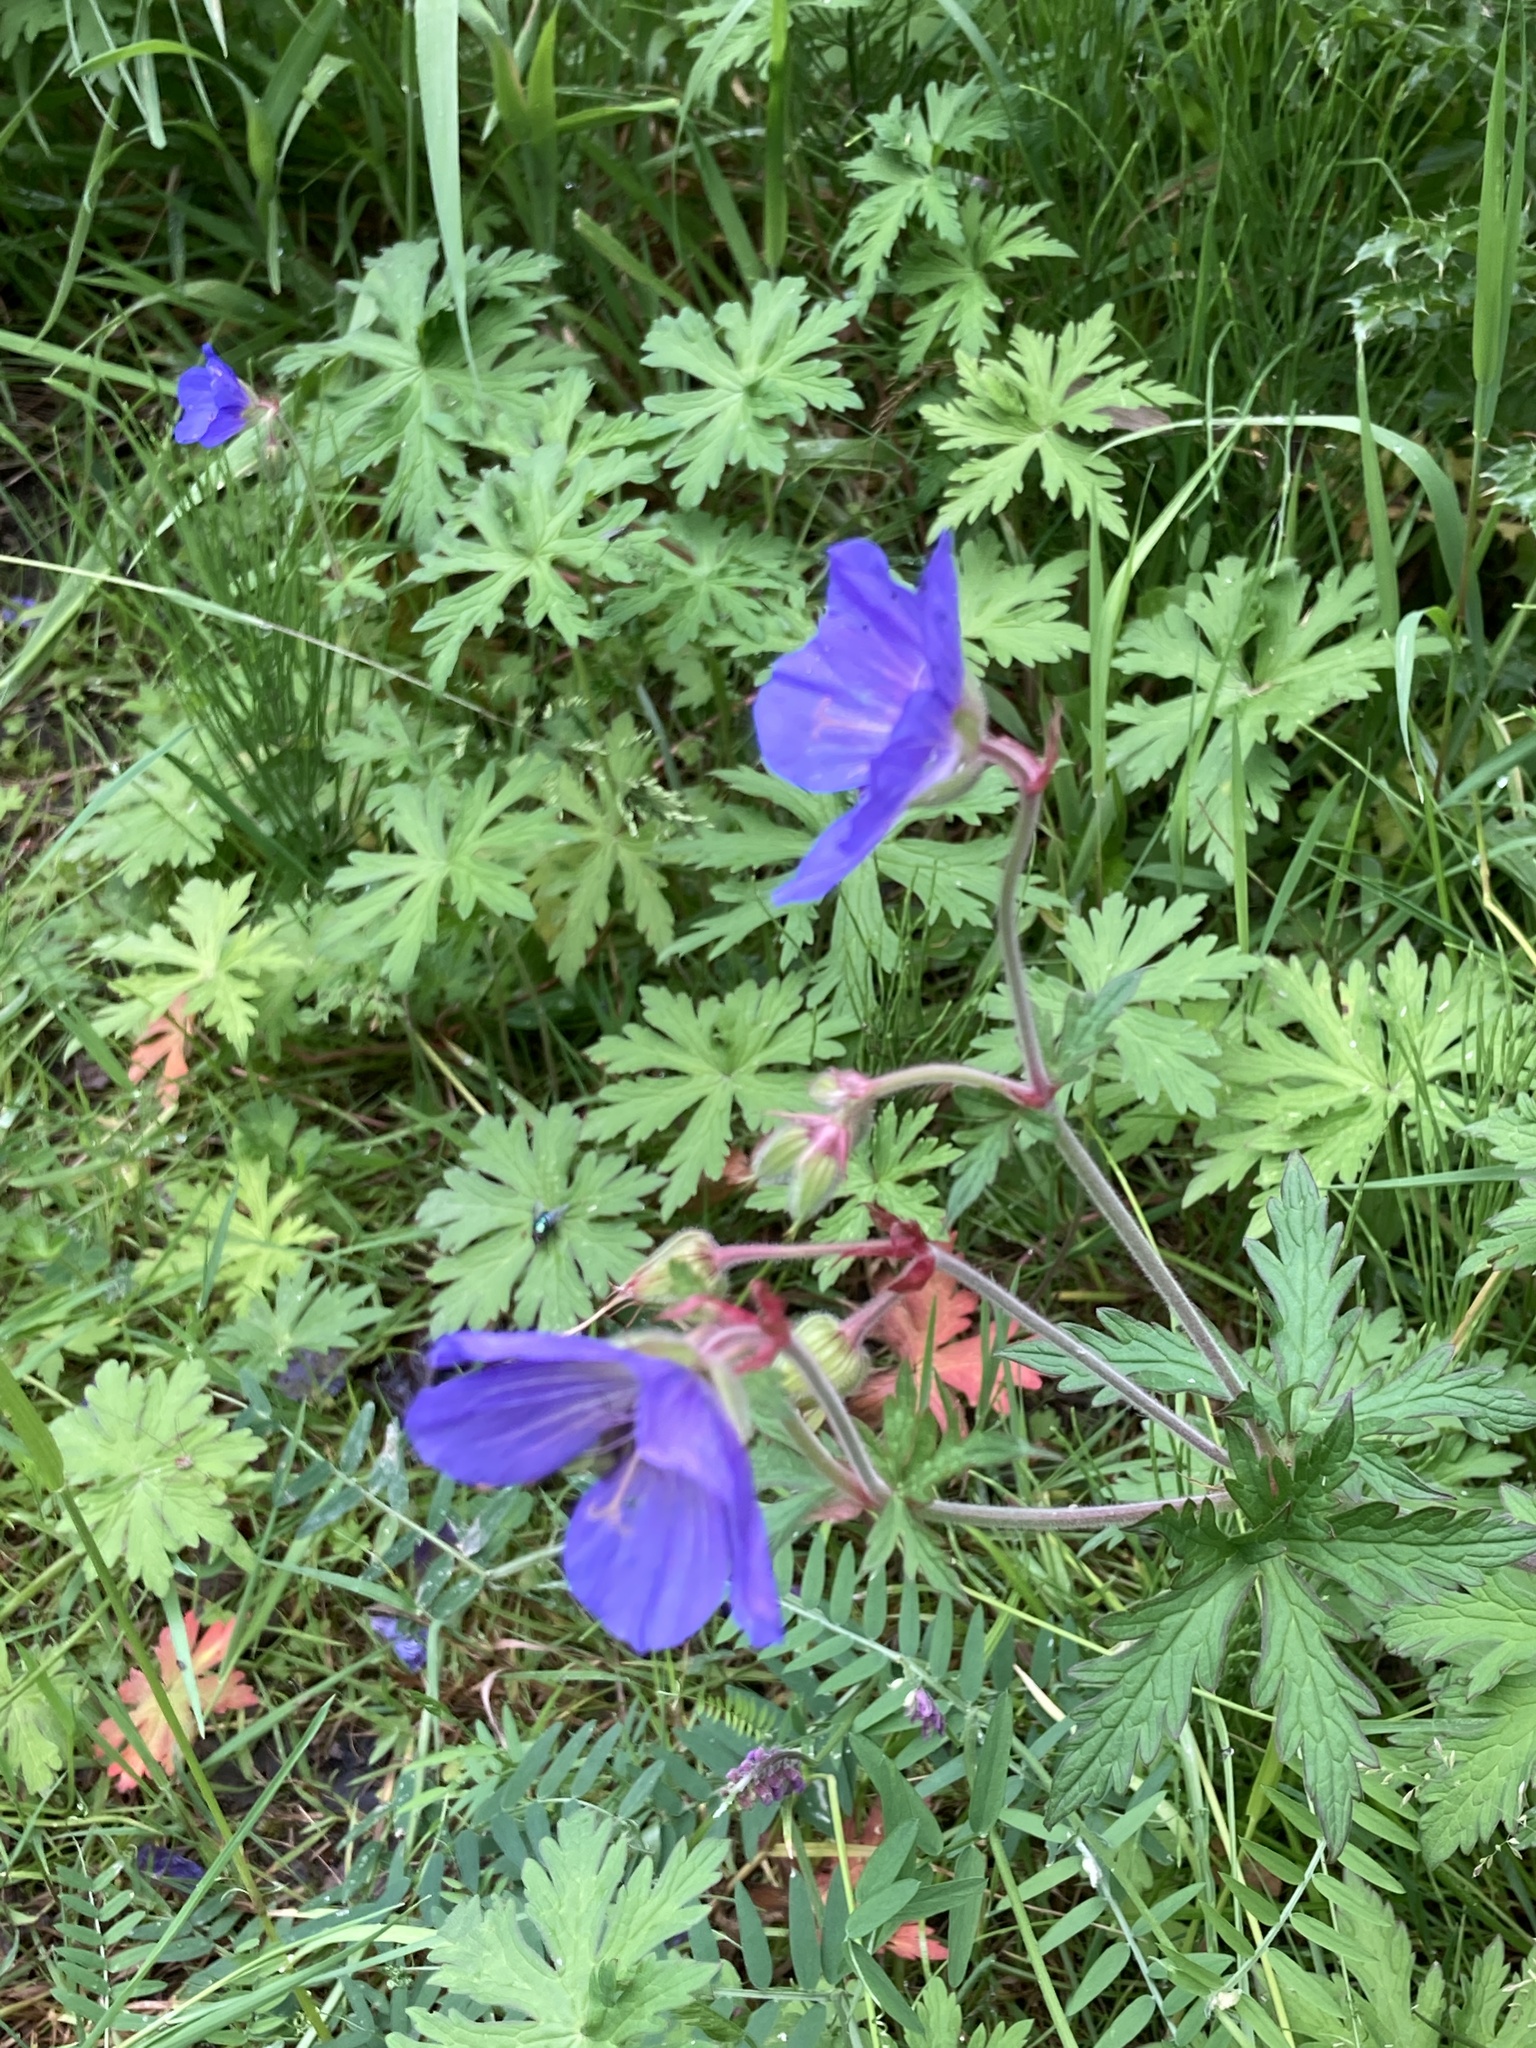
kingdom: Plantae
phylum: Tracheophyta
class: Magnoliopsida
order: Geraniales
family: Geraniaceae
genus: Geranium
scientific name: Geranium pratense
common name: Meadow crane's-bill
